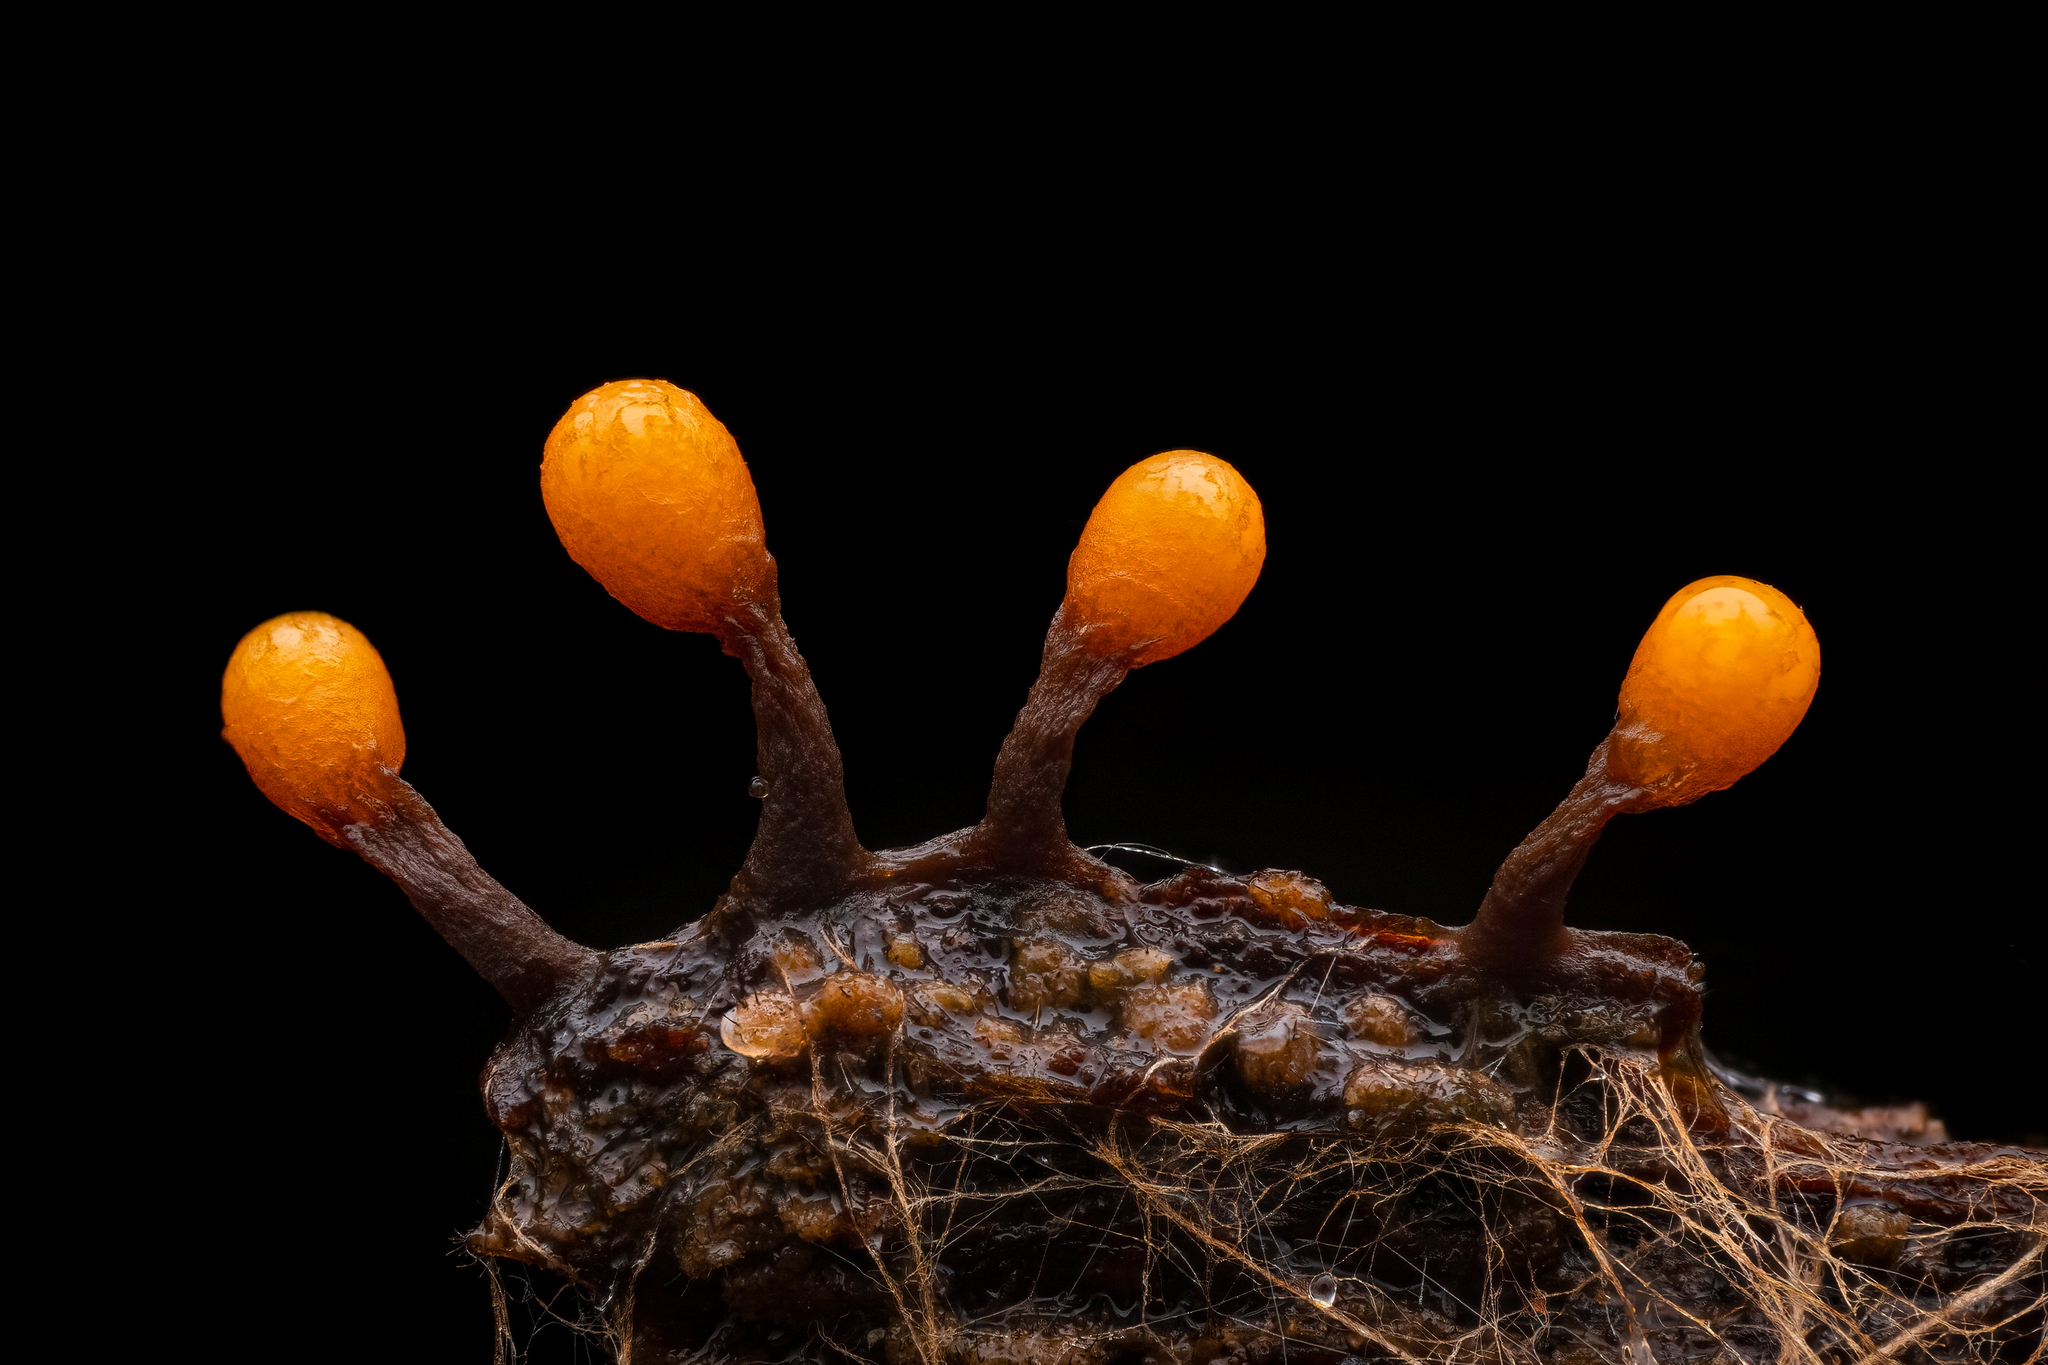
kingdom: Protozoa
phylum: Mycetozoa
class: Myxomycetes
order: Trichiales
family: Trichiaceae
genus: Trichia
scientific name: Trichia ambigua
